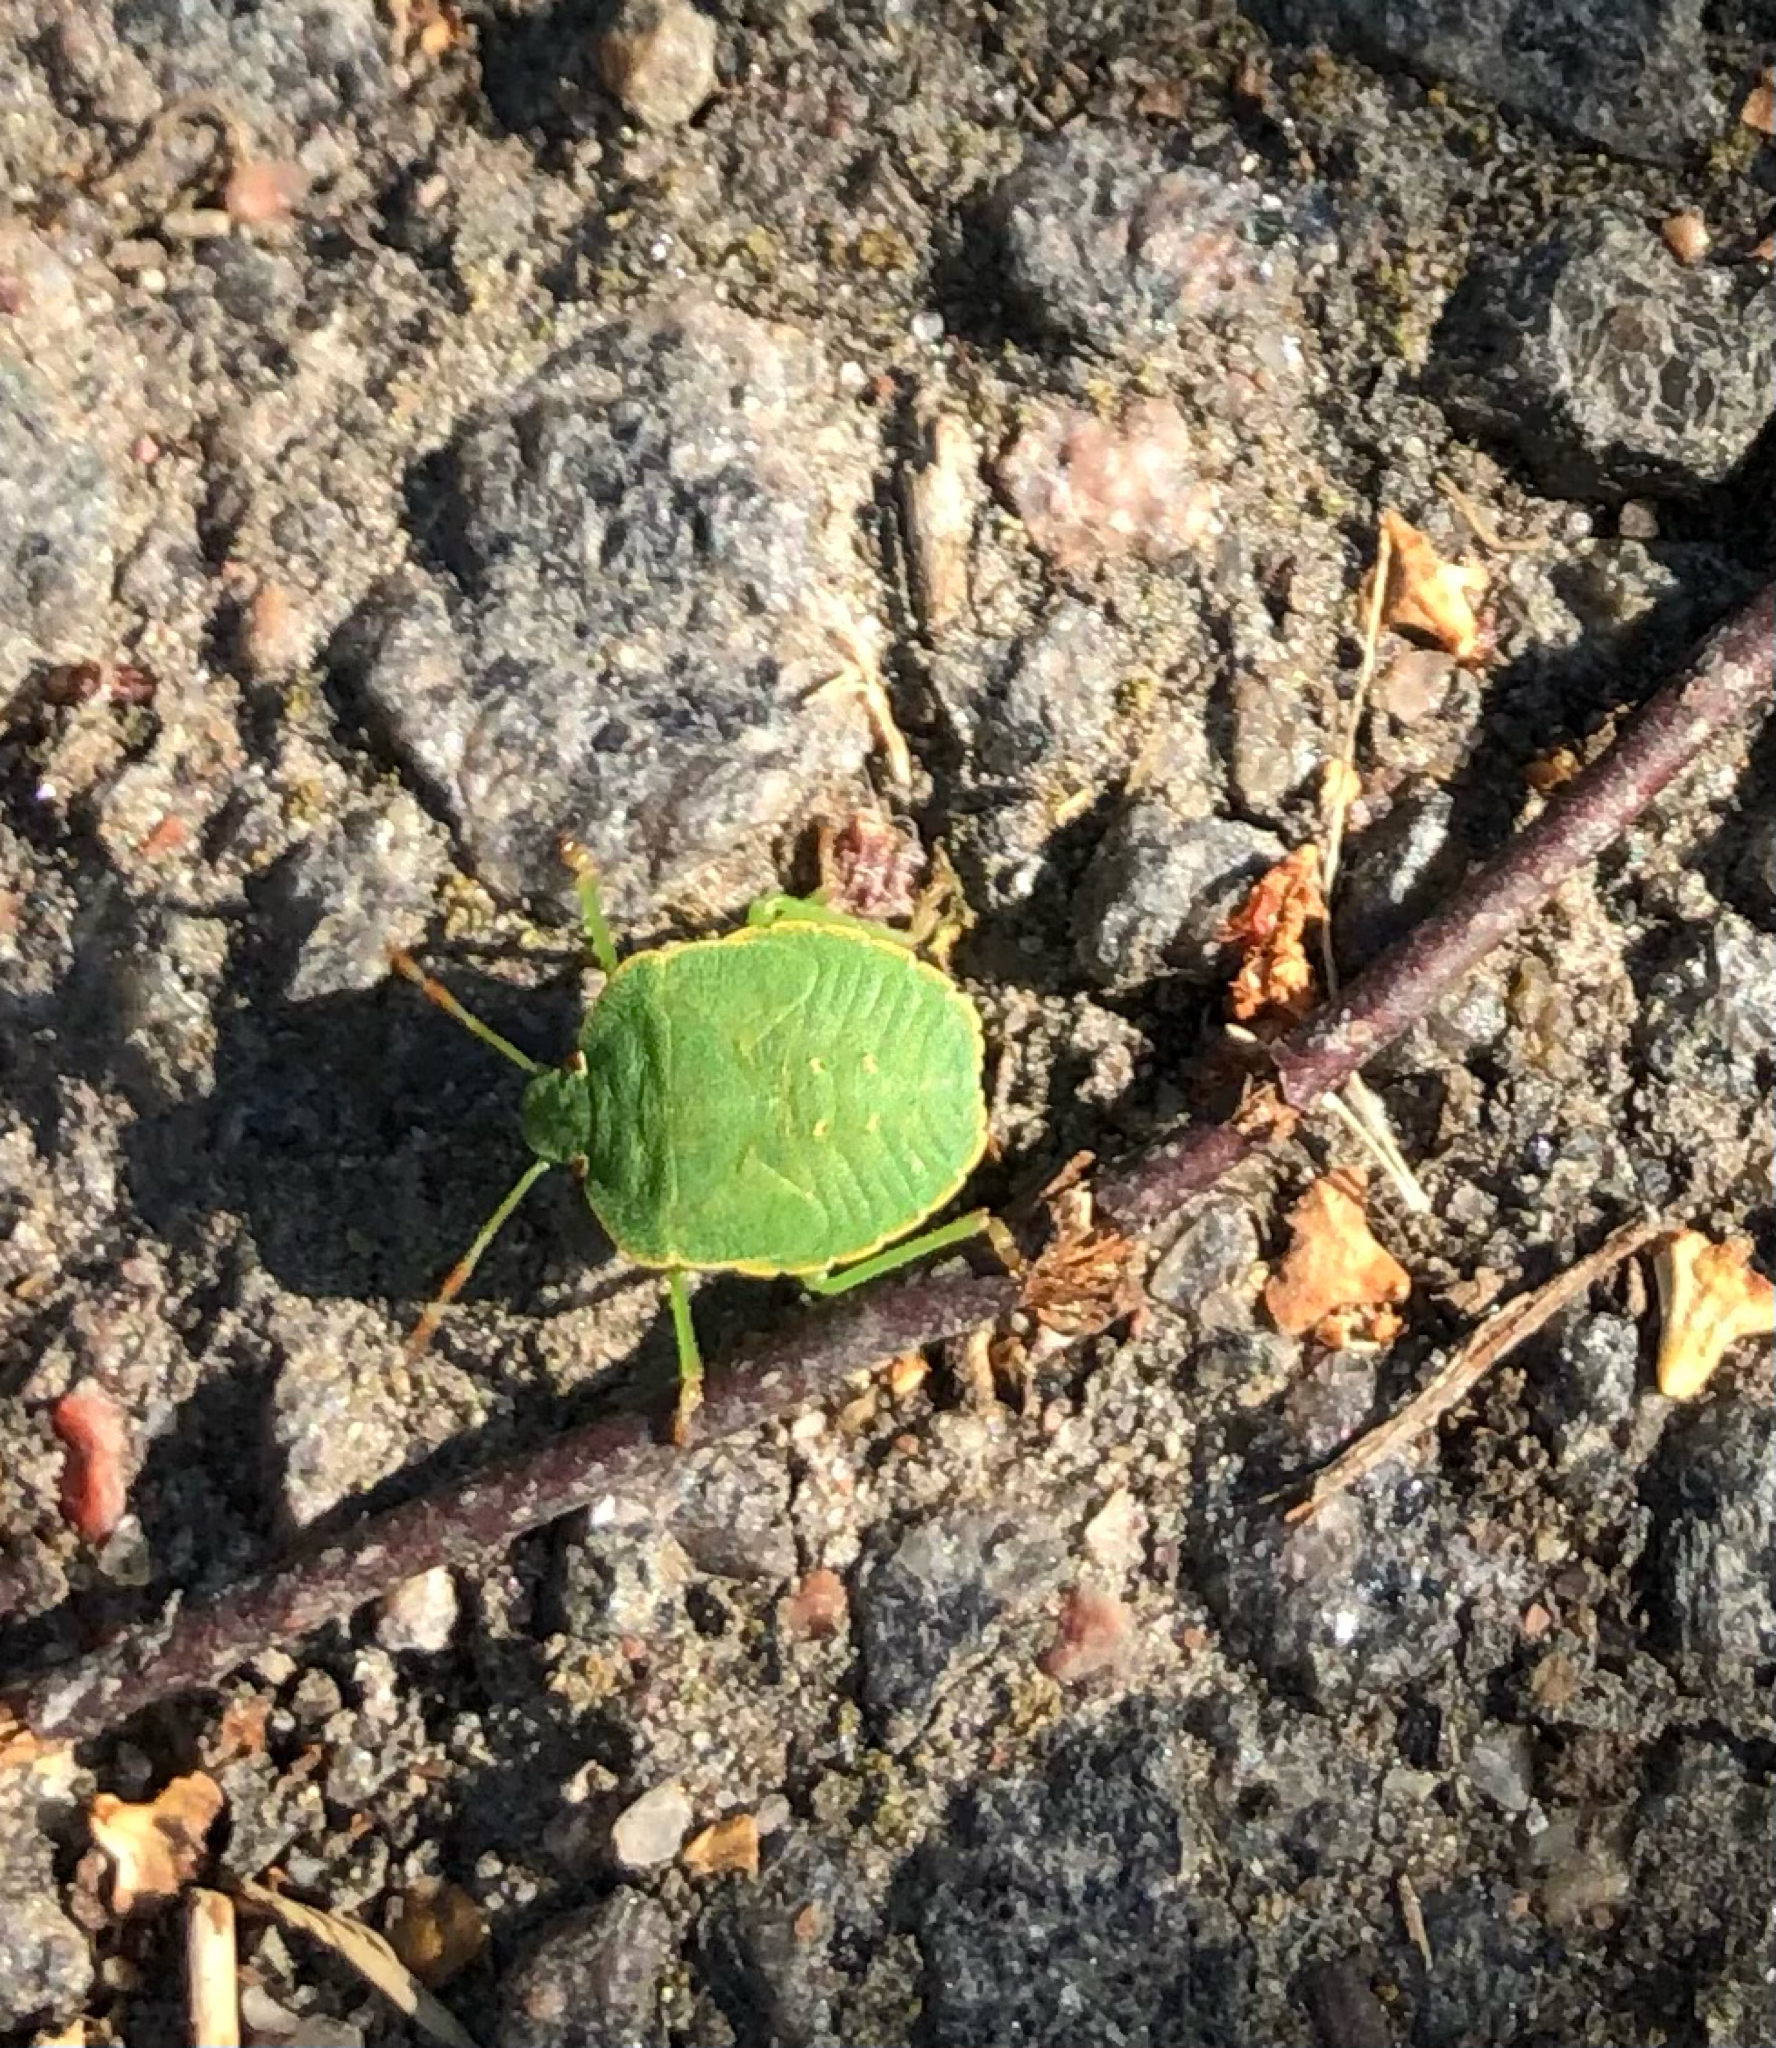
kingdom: Animalia
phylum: Arthropoda
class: Insecta
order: Hemiptera
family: Pentatomidae
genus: Palomena
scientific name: Palomena prasina
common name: Green shieldbug
